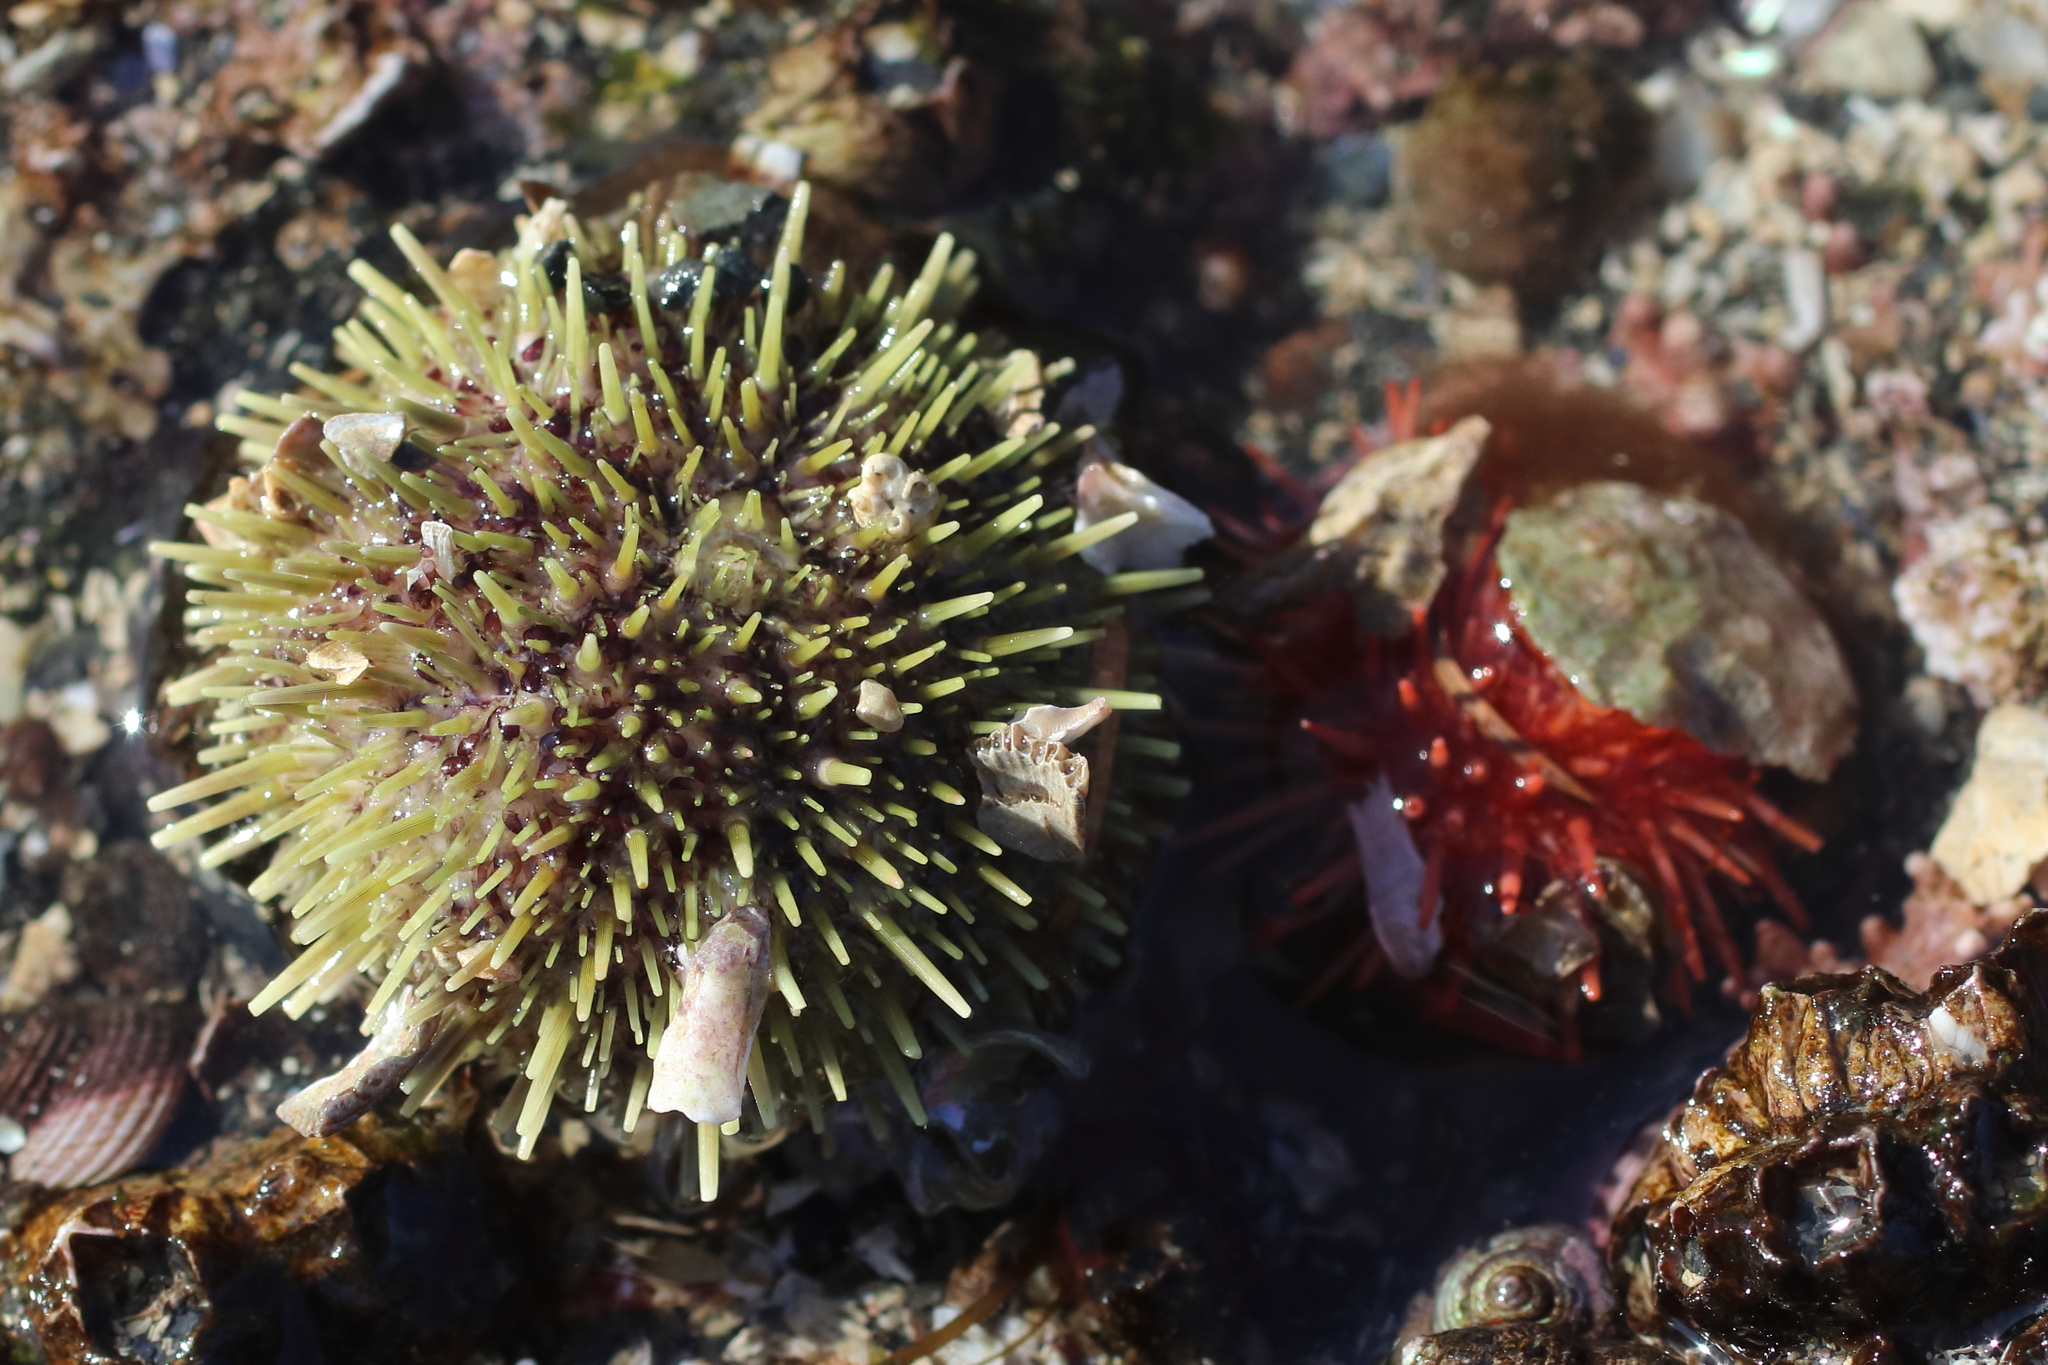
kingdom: Animalia
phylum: Echinodermata
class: Echinoidea
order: Camarodonta
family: Strongylocentrotidae
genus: Strongylocentrotus
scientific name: Strongylocentrotus droebachiensis
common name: Northern sea urchin
